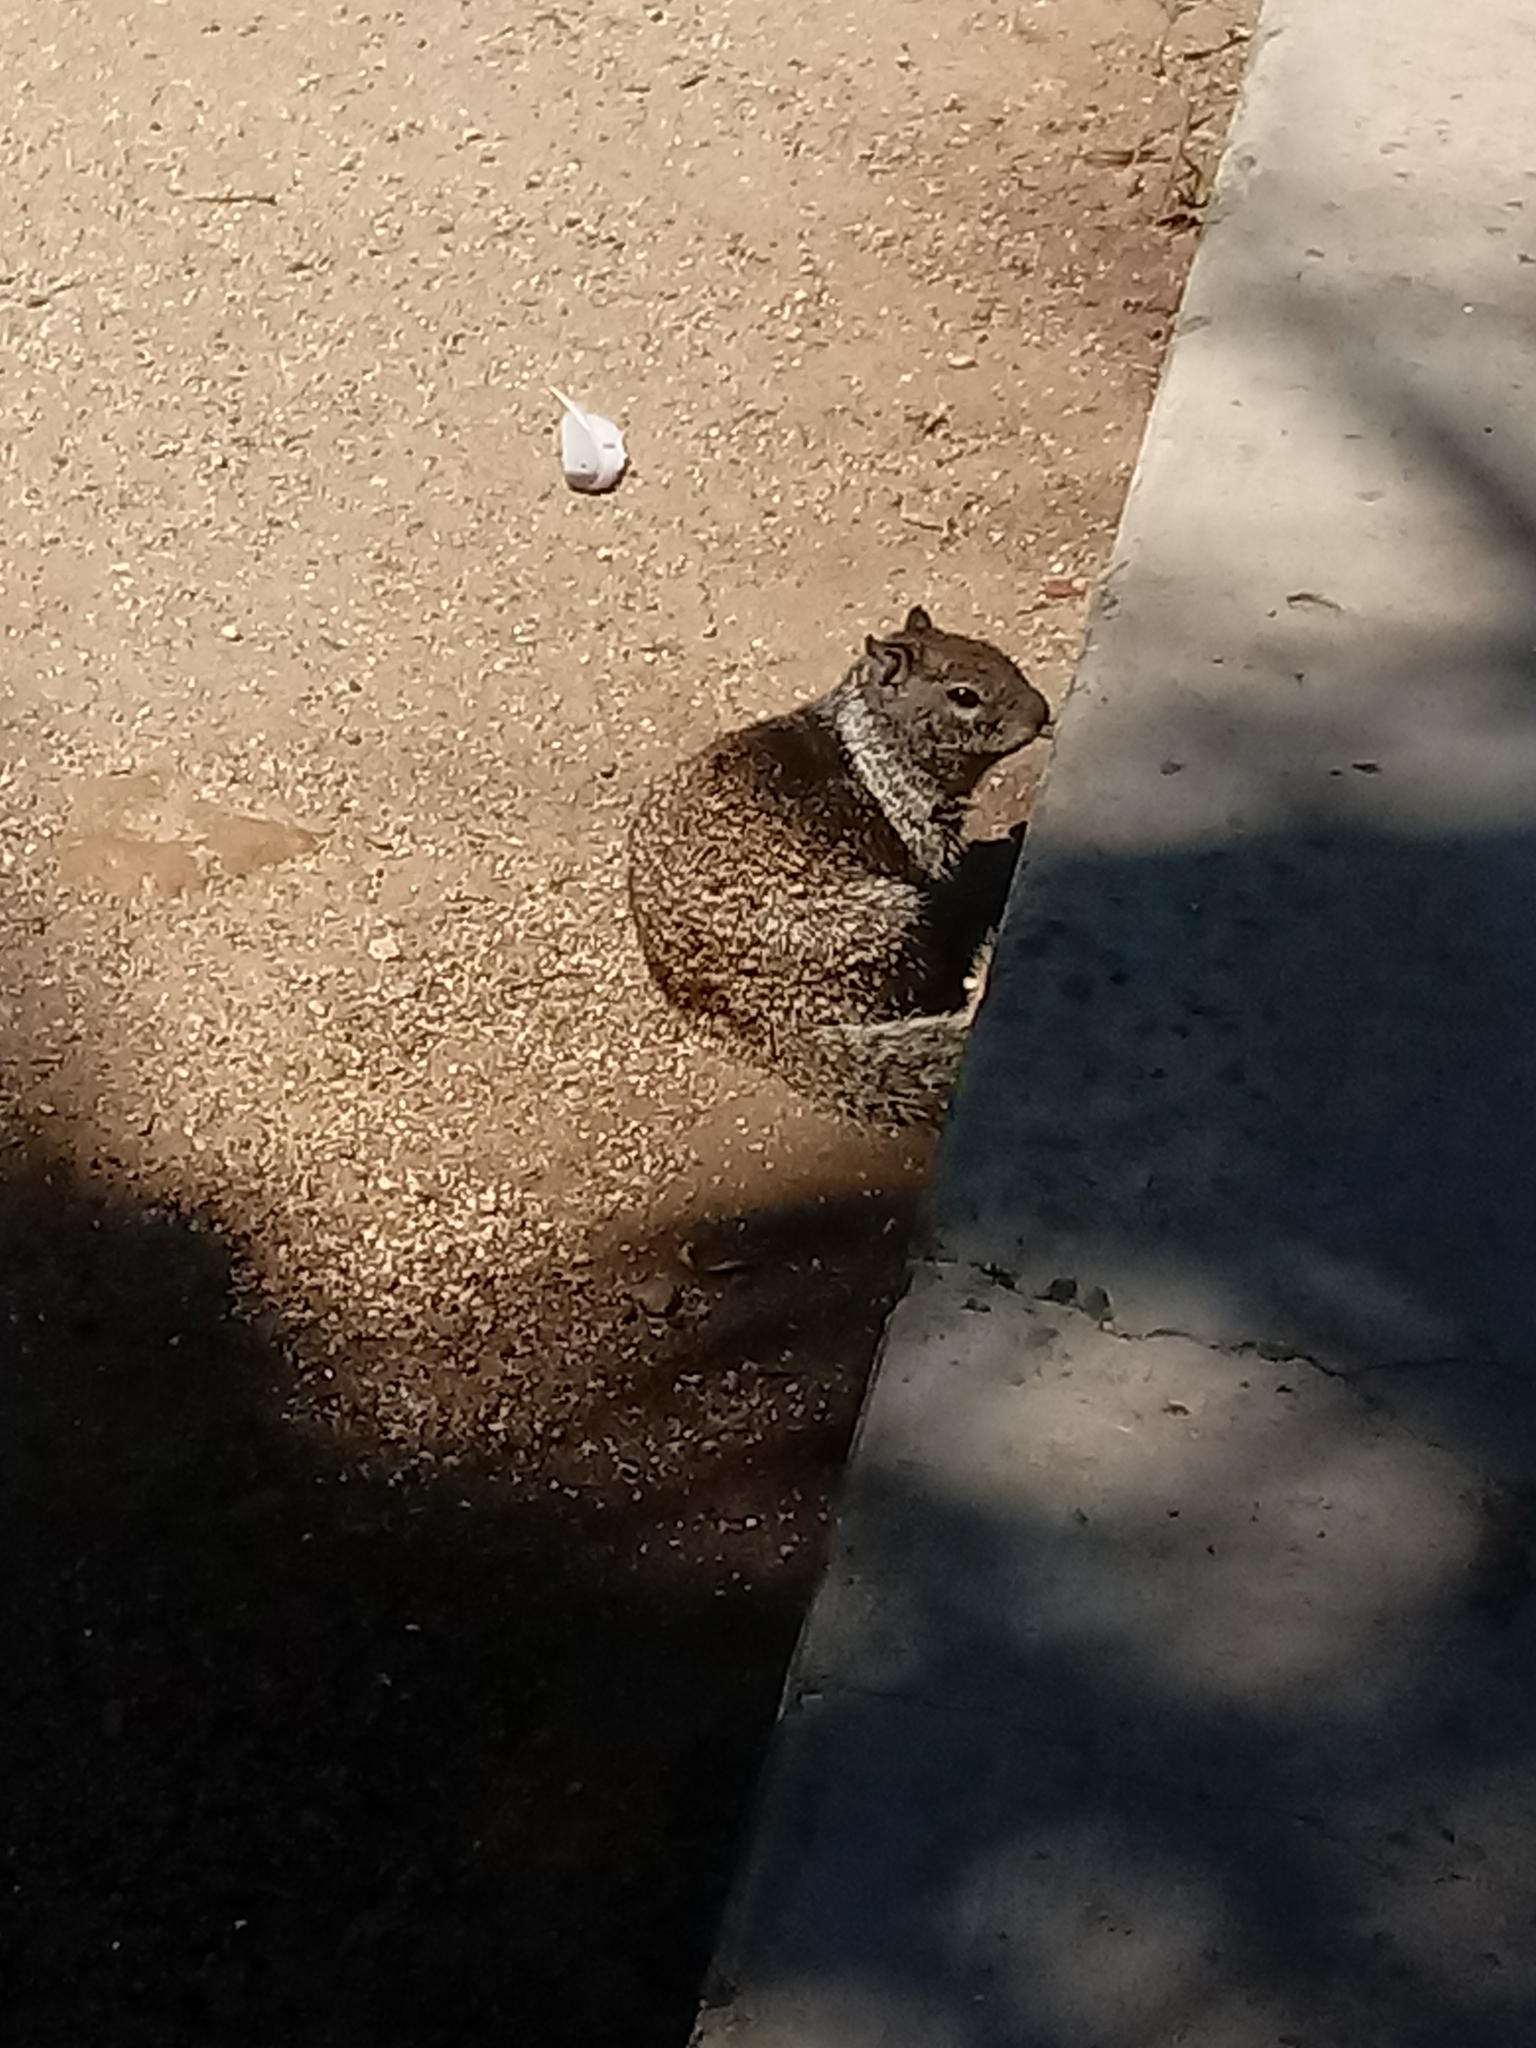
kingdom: Animalia
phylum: Chordata
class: Mammalia
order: Rodentia
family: Sciuridae
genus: Otospermophilus
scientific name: Otospermophilus beecheyi
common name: California ground squirrel
